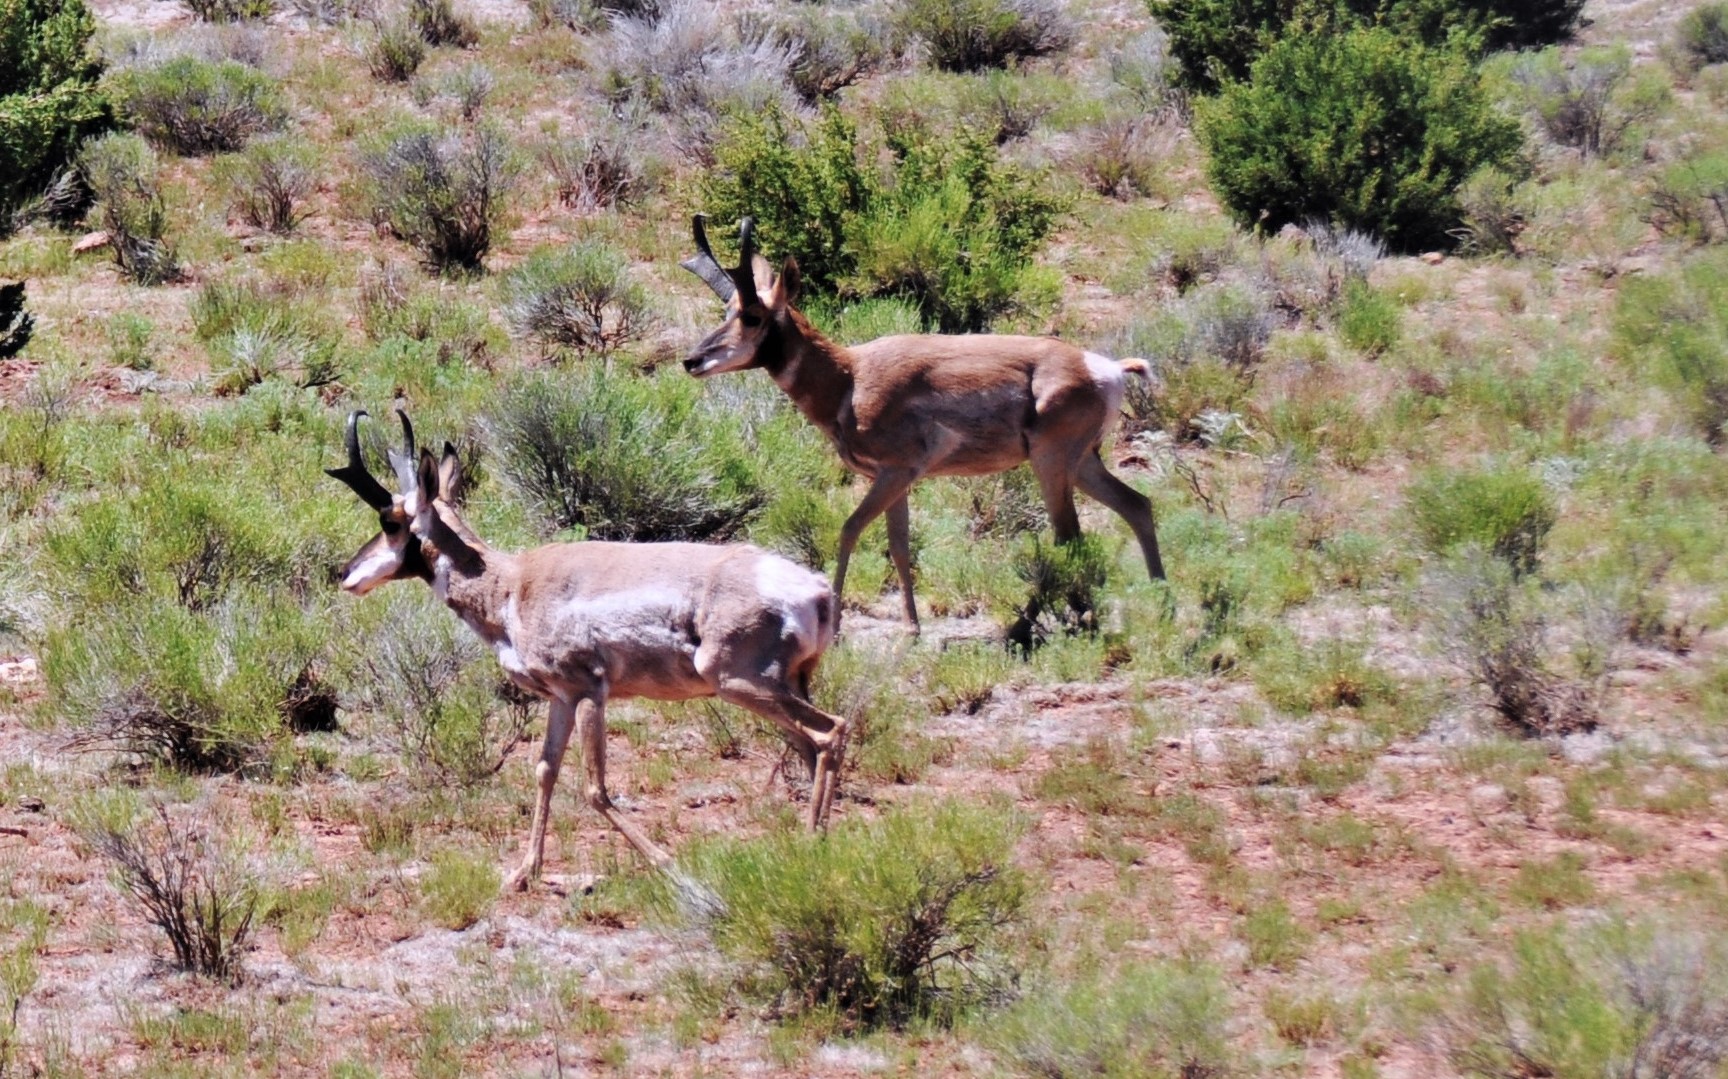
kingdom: Animalia
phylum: Chordata
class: Mammalia
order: Artiodactyla
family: Antilocapridae
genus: Antilocapra
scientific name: Antilocapra americana
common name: Pronghorn
